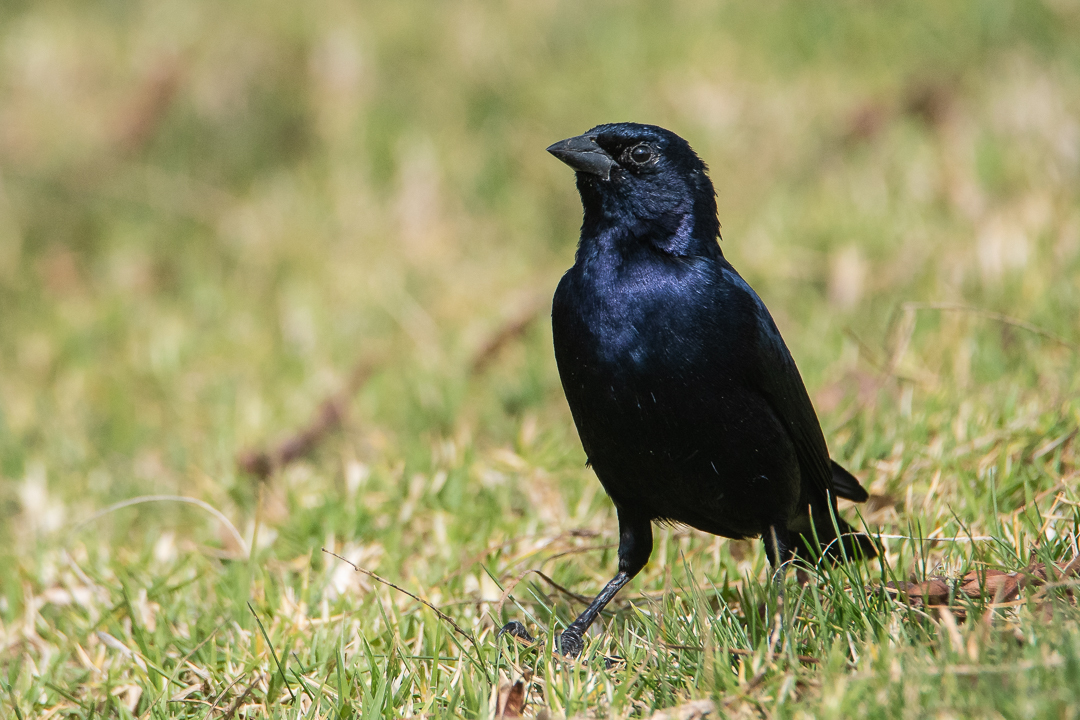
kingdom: Animalia
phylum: Chordata
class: Aves
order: Passeriformes
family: Icteridae
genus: Molothrus
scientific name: Molothrus bonariensis
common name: Shiny cowbird
